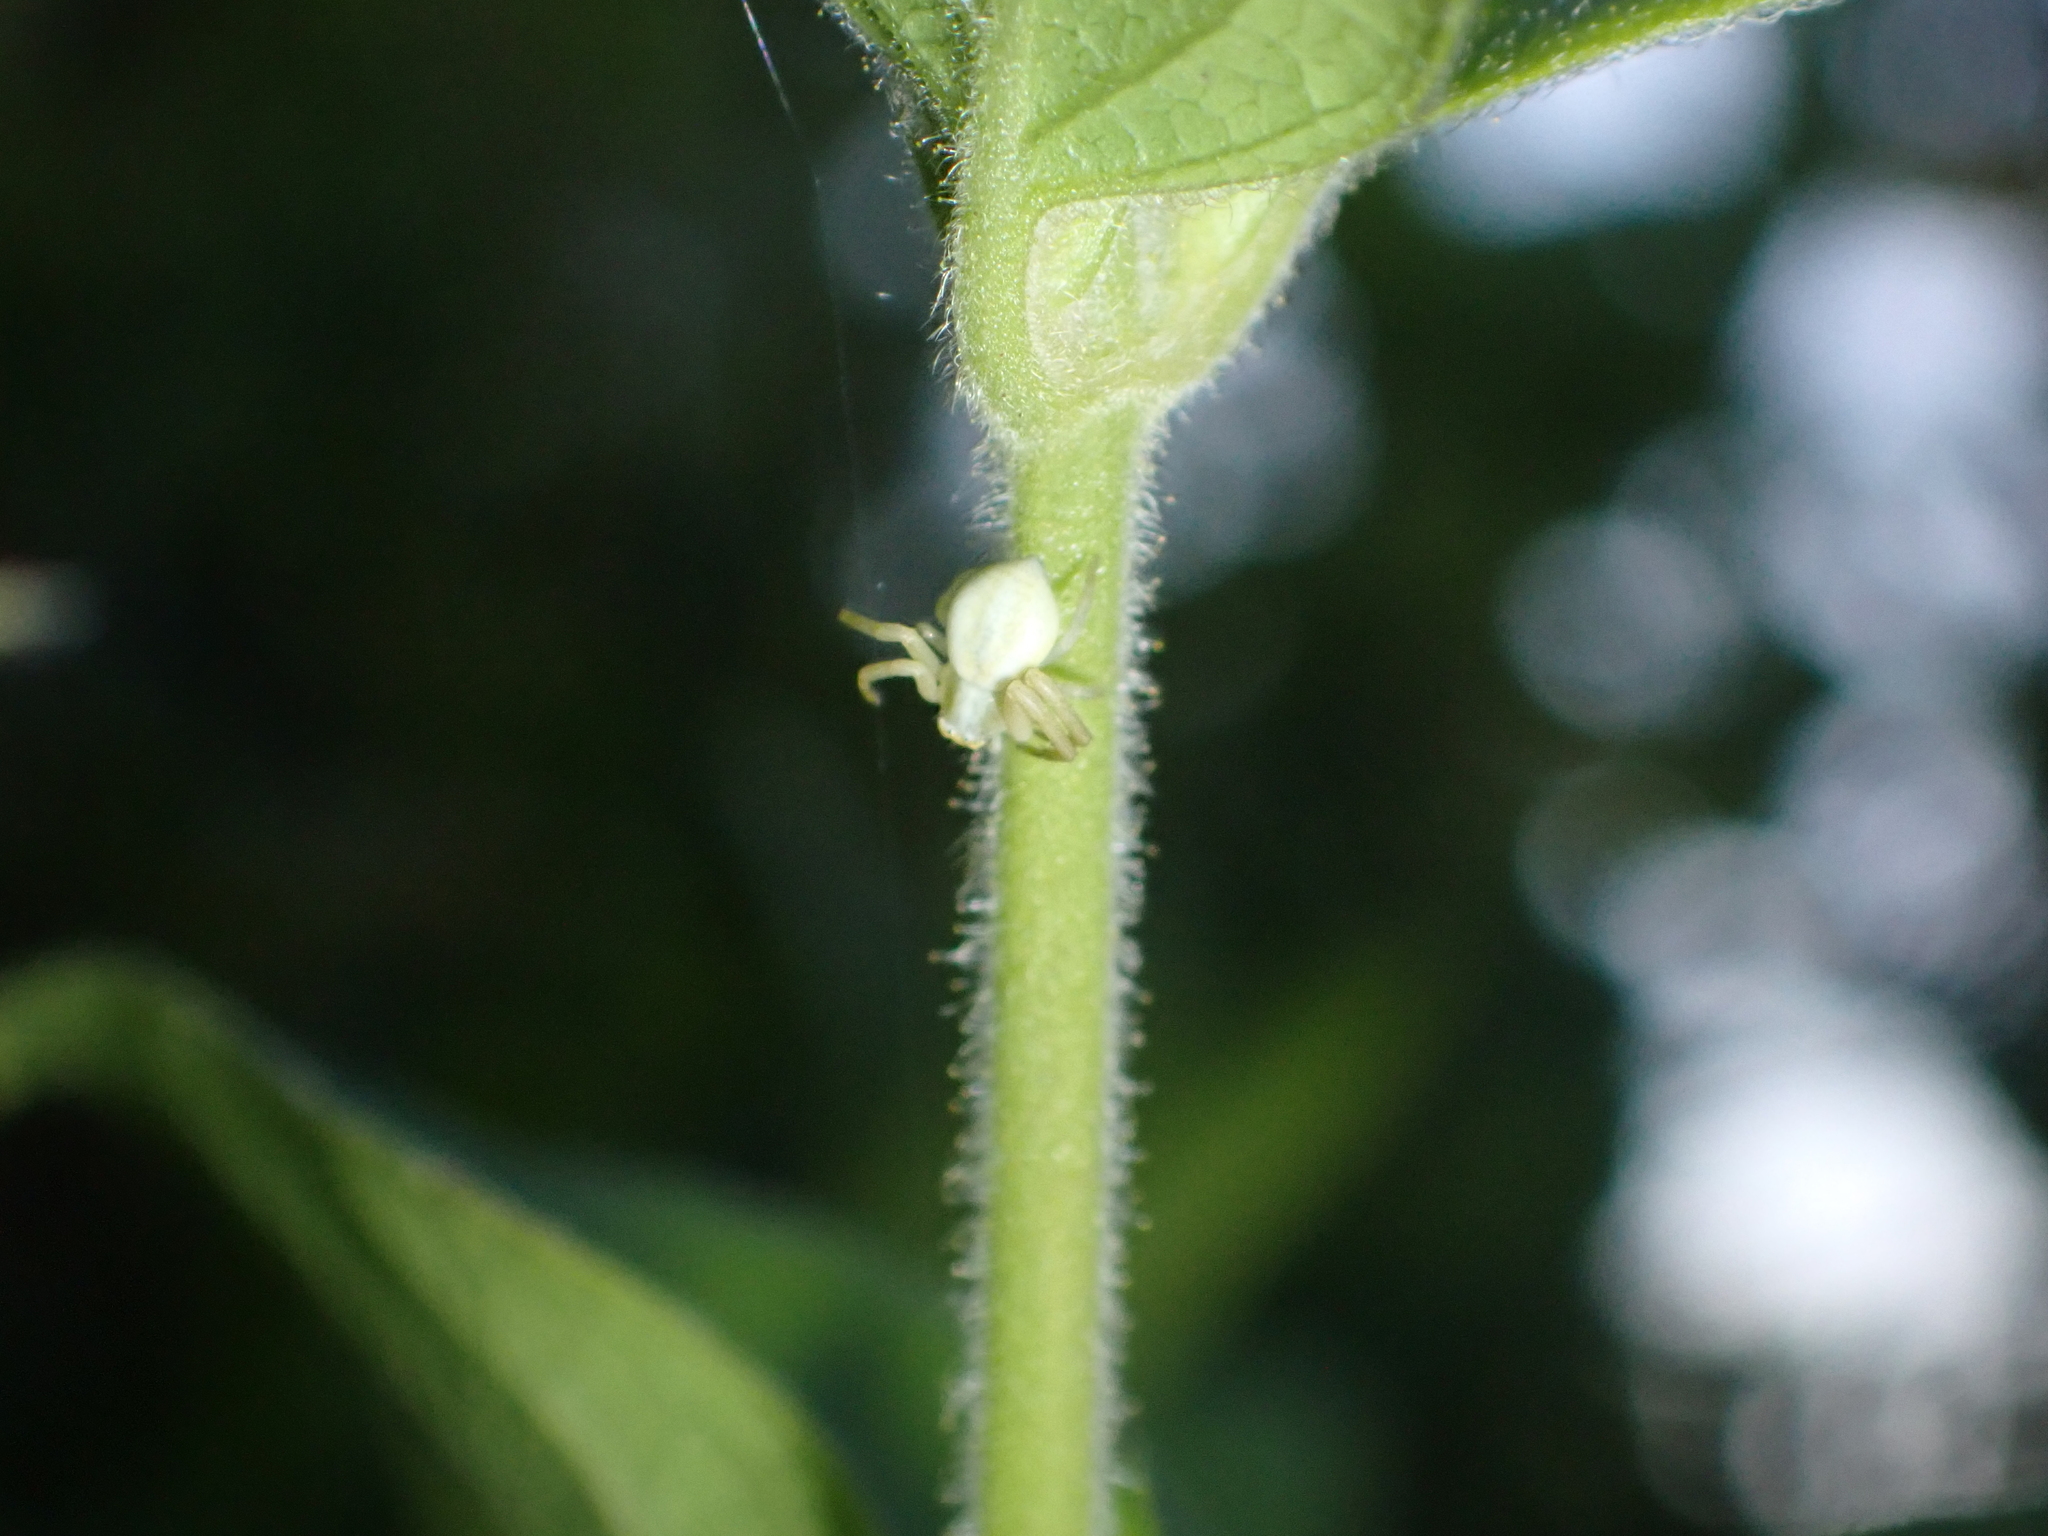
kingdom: Animalia
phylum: Arthropoda
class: Arachnida
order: Araneae
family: Thomisidae
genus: Misumena
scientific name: Misumena vatia
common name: Goldenrod crab spider
